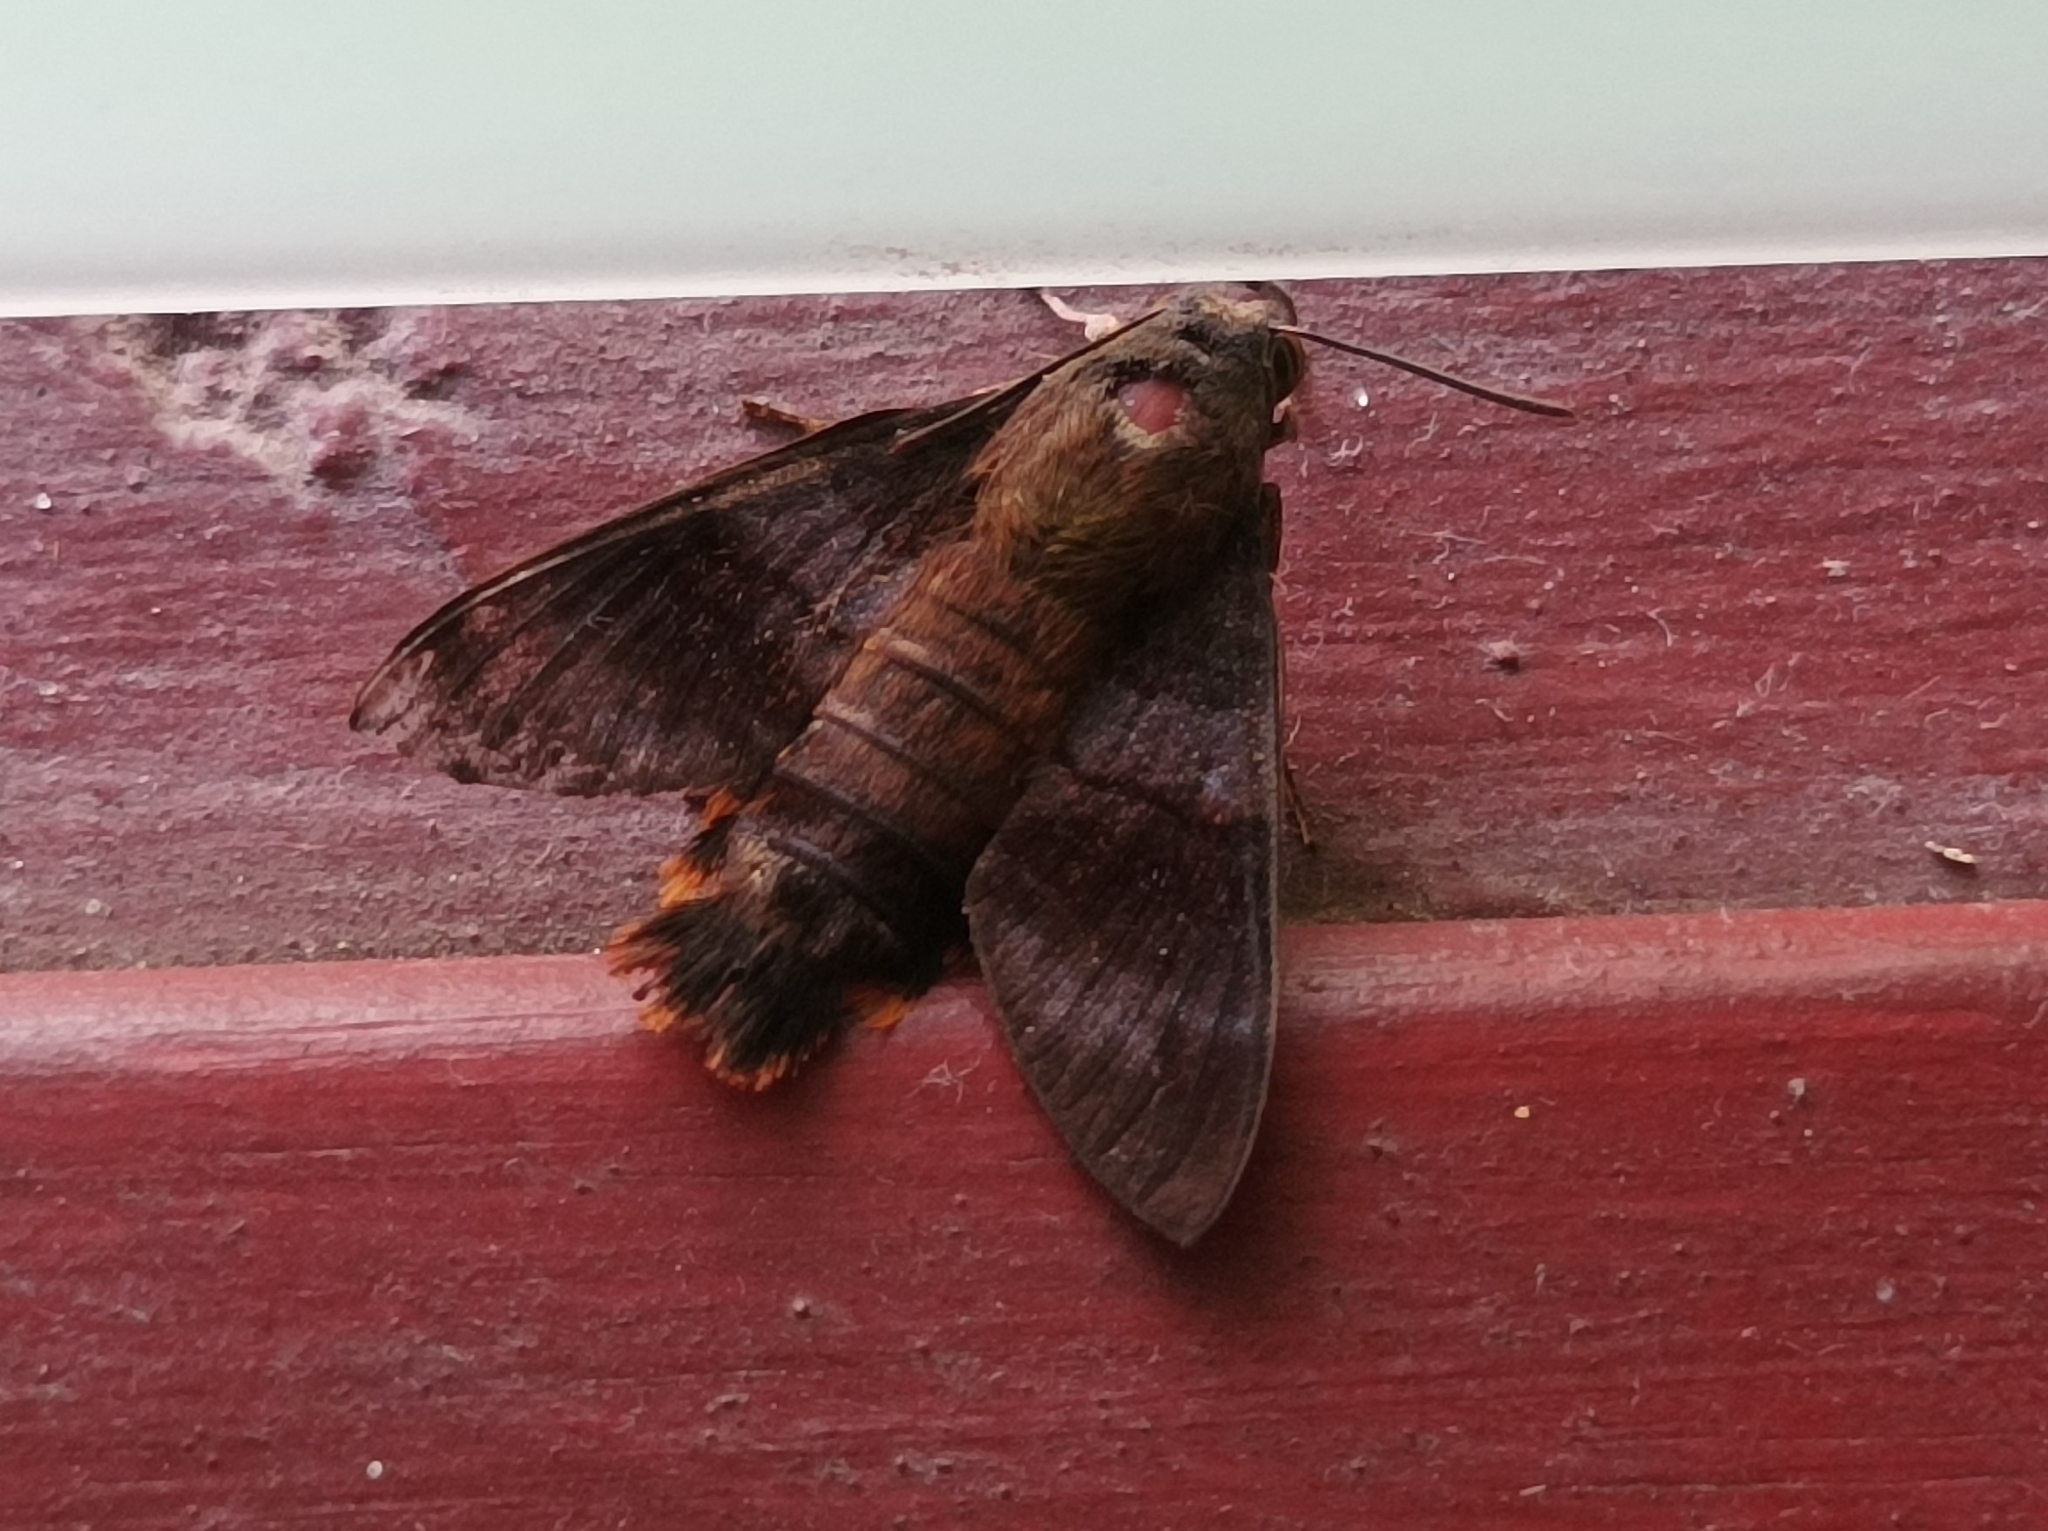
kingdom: Animalia
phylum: Arthropoda
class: Insecta
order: Lepidoptera
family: Sphingidae
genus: Macroglossum
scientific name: Macroglossum corythus
